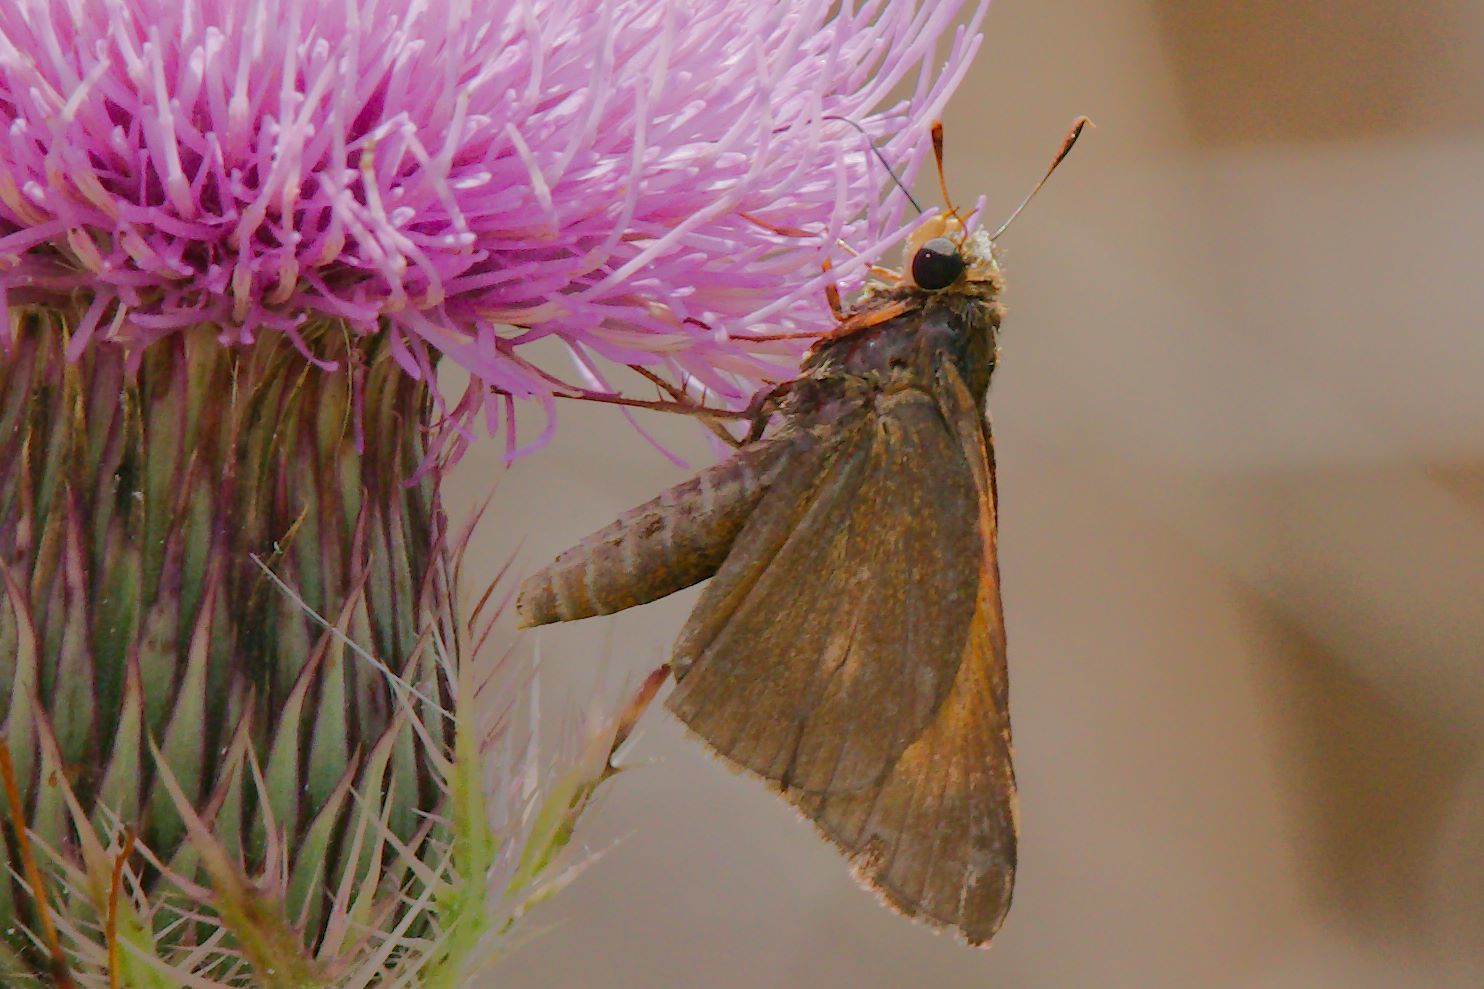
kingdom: Animalia
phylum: Arthropoda
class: Insecta
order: Lepidoptera
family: Hesperiidae
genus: Euphyes
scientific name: Euphyes pilatka
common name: Palatka skipper
